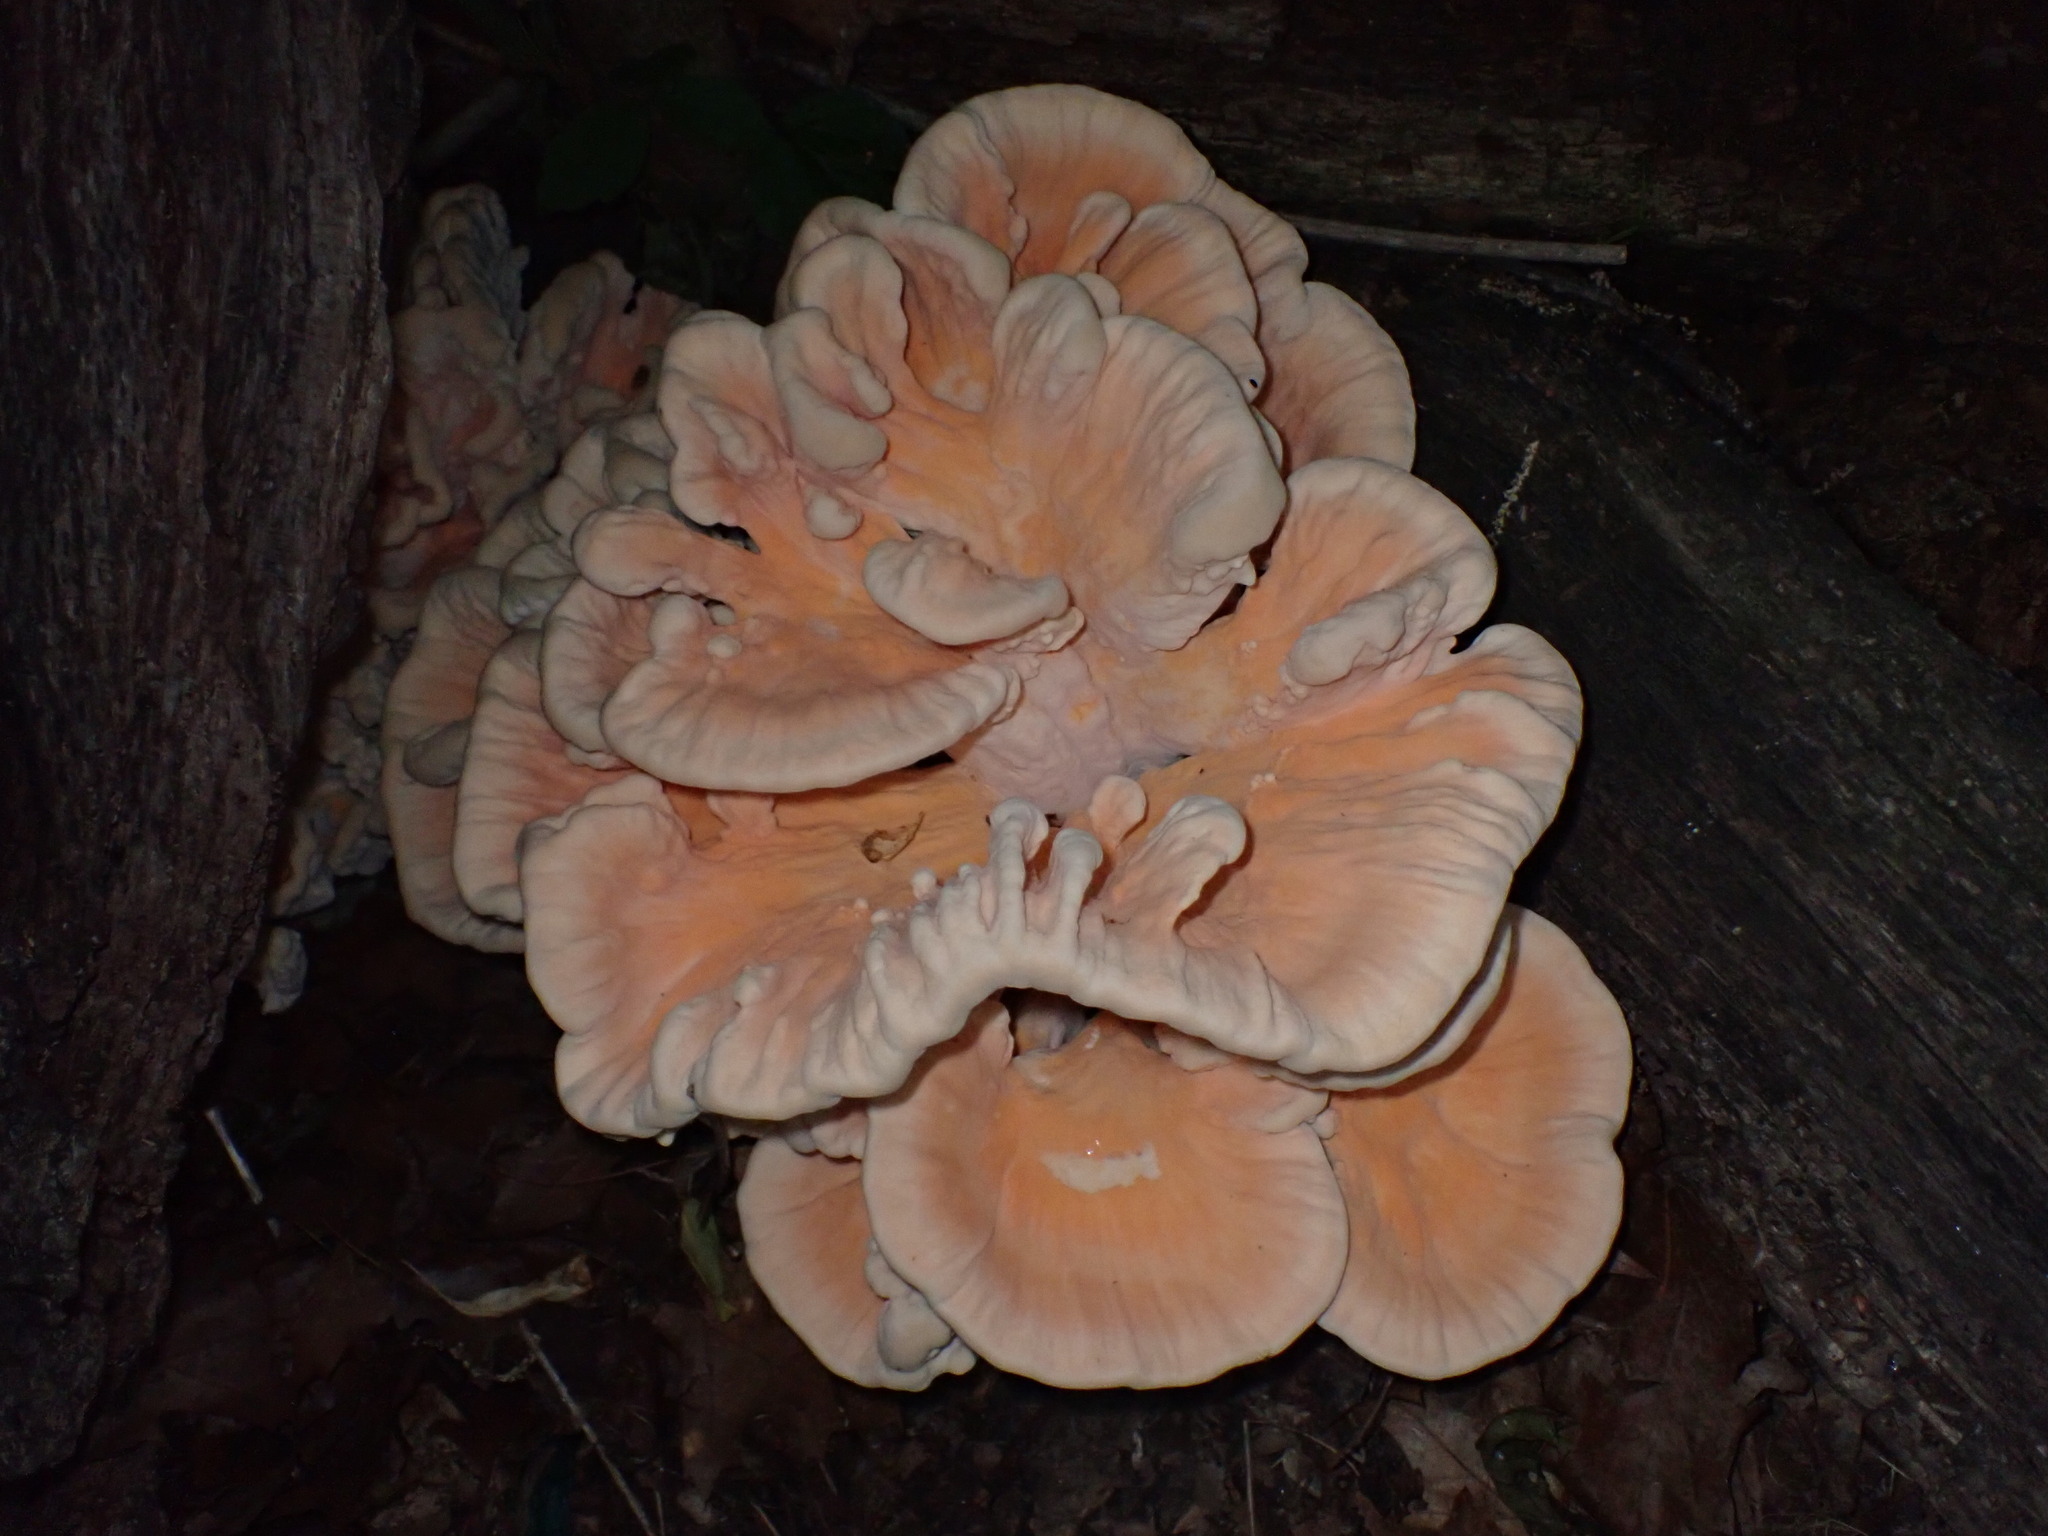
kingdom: Fungi
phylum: Basidiomycota
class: Agaricomycetes
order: Polyporales
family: Laetiporaceae
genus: Laetiporus
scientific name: Laetiporus sulphureus
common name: Chicken of the woods
